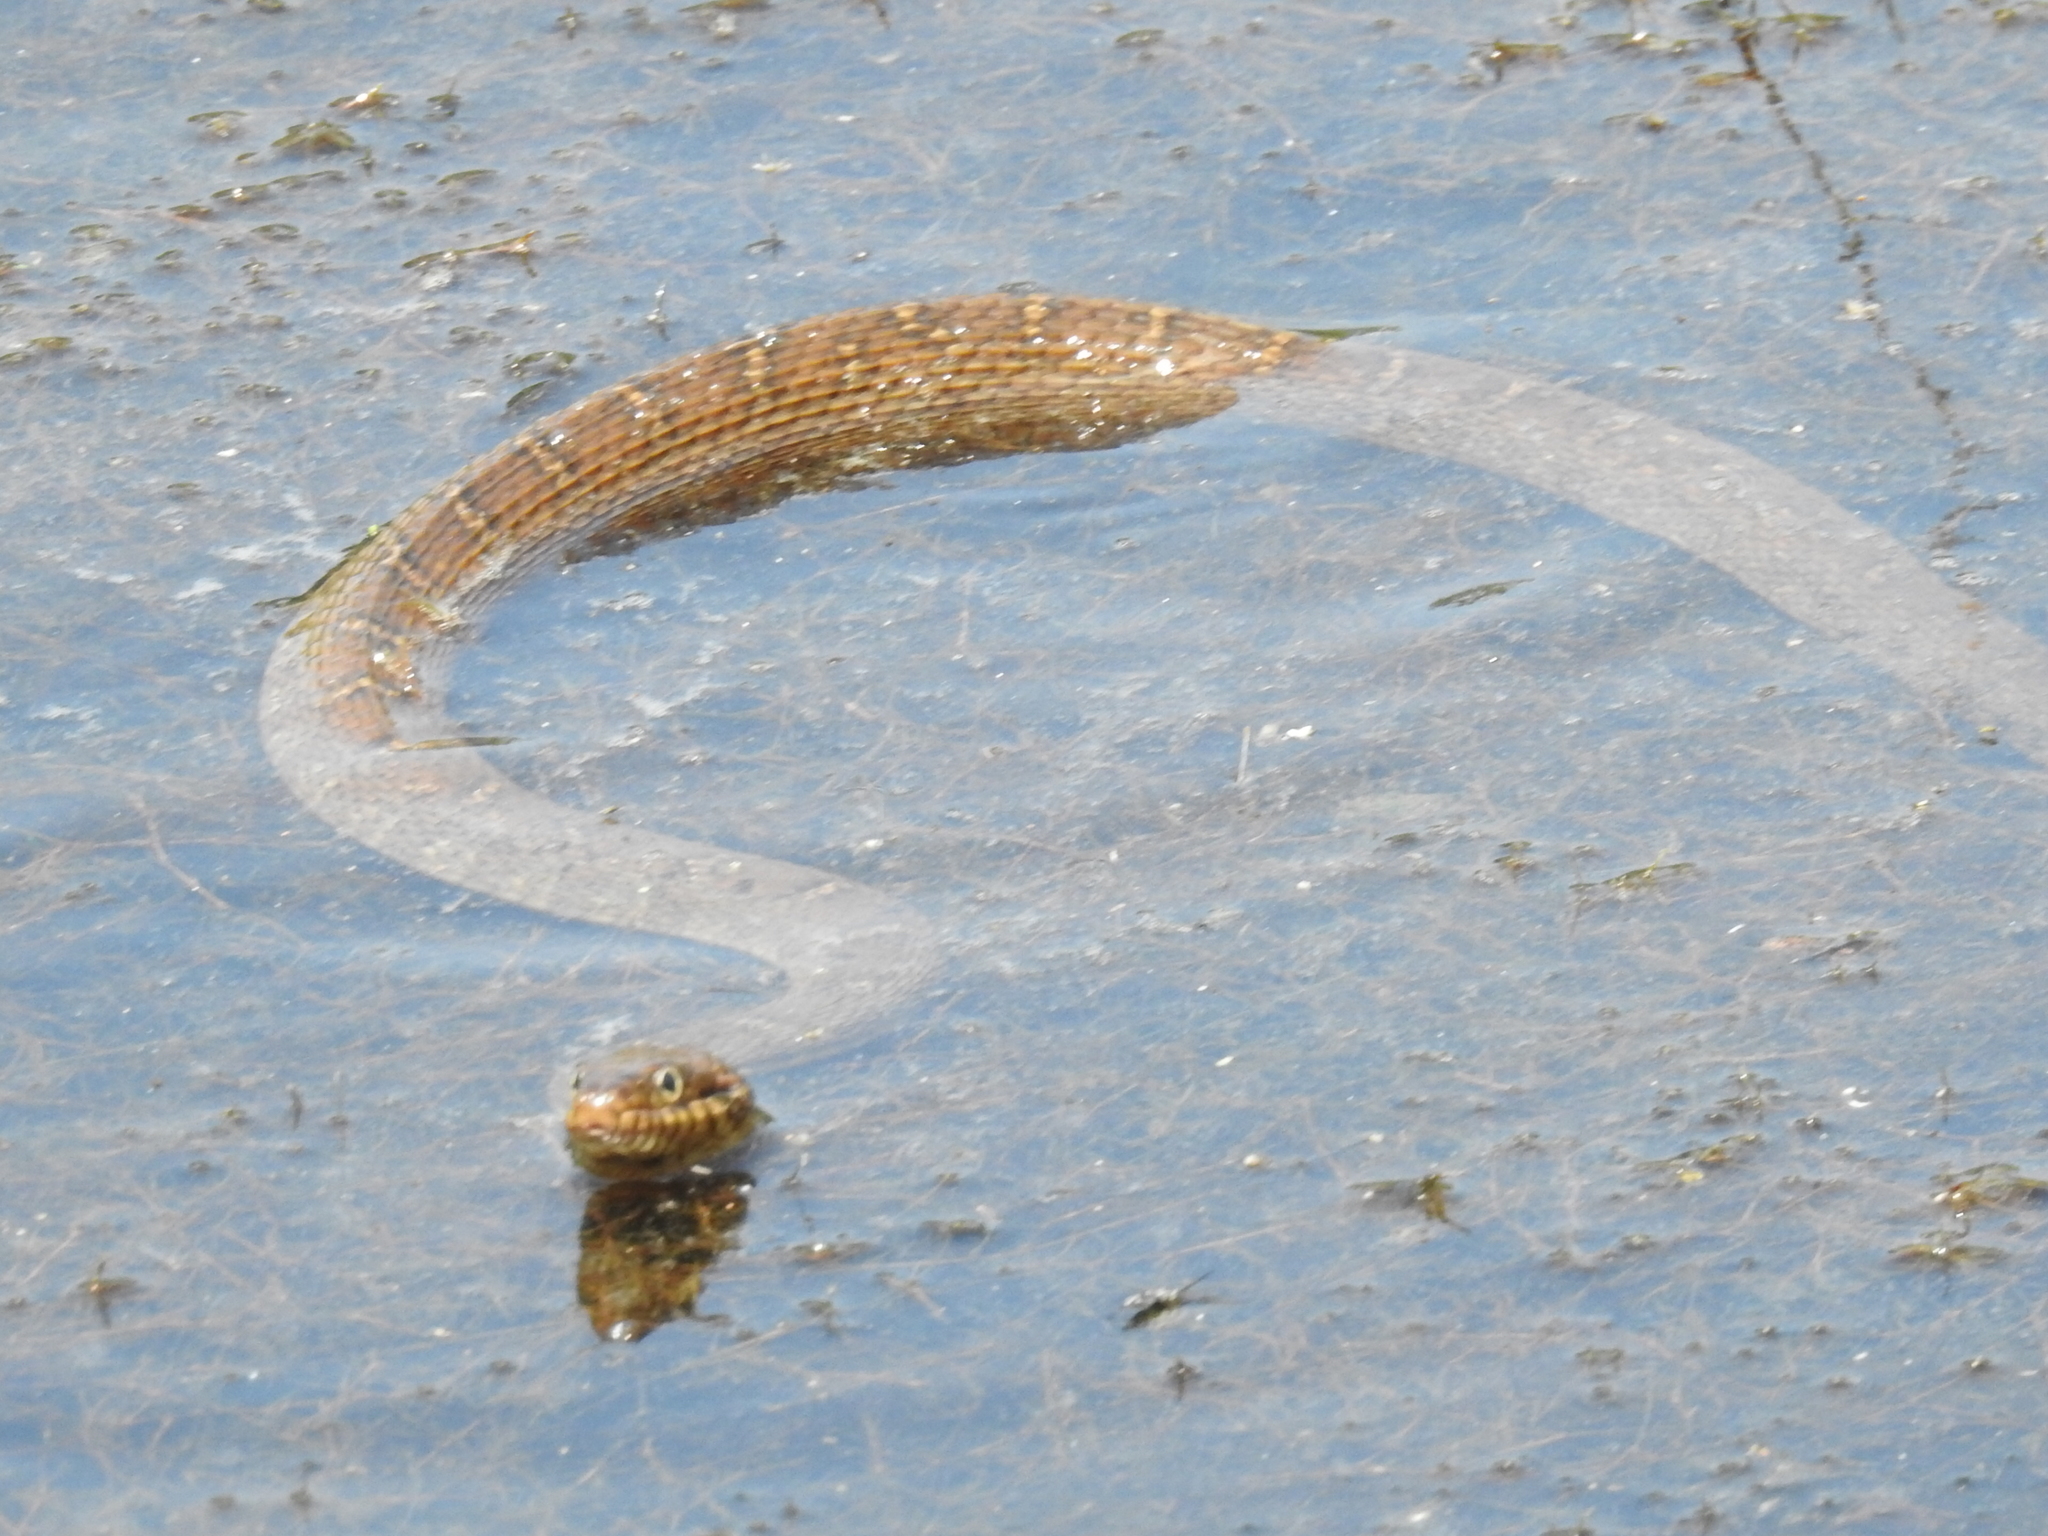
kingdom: Animalia
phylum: Chordata
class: Squamata
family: Colubridae
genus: Nerodia
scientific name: Nerodia erythrogaster
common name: Plainbelly water snake
